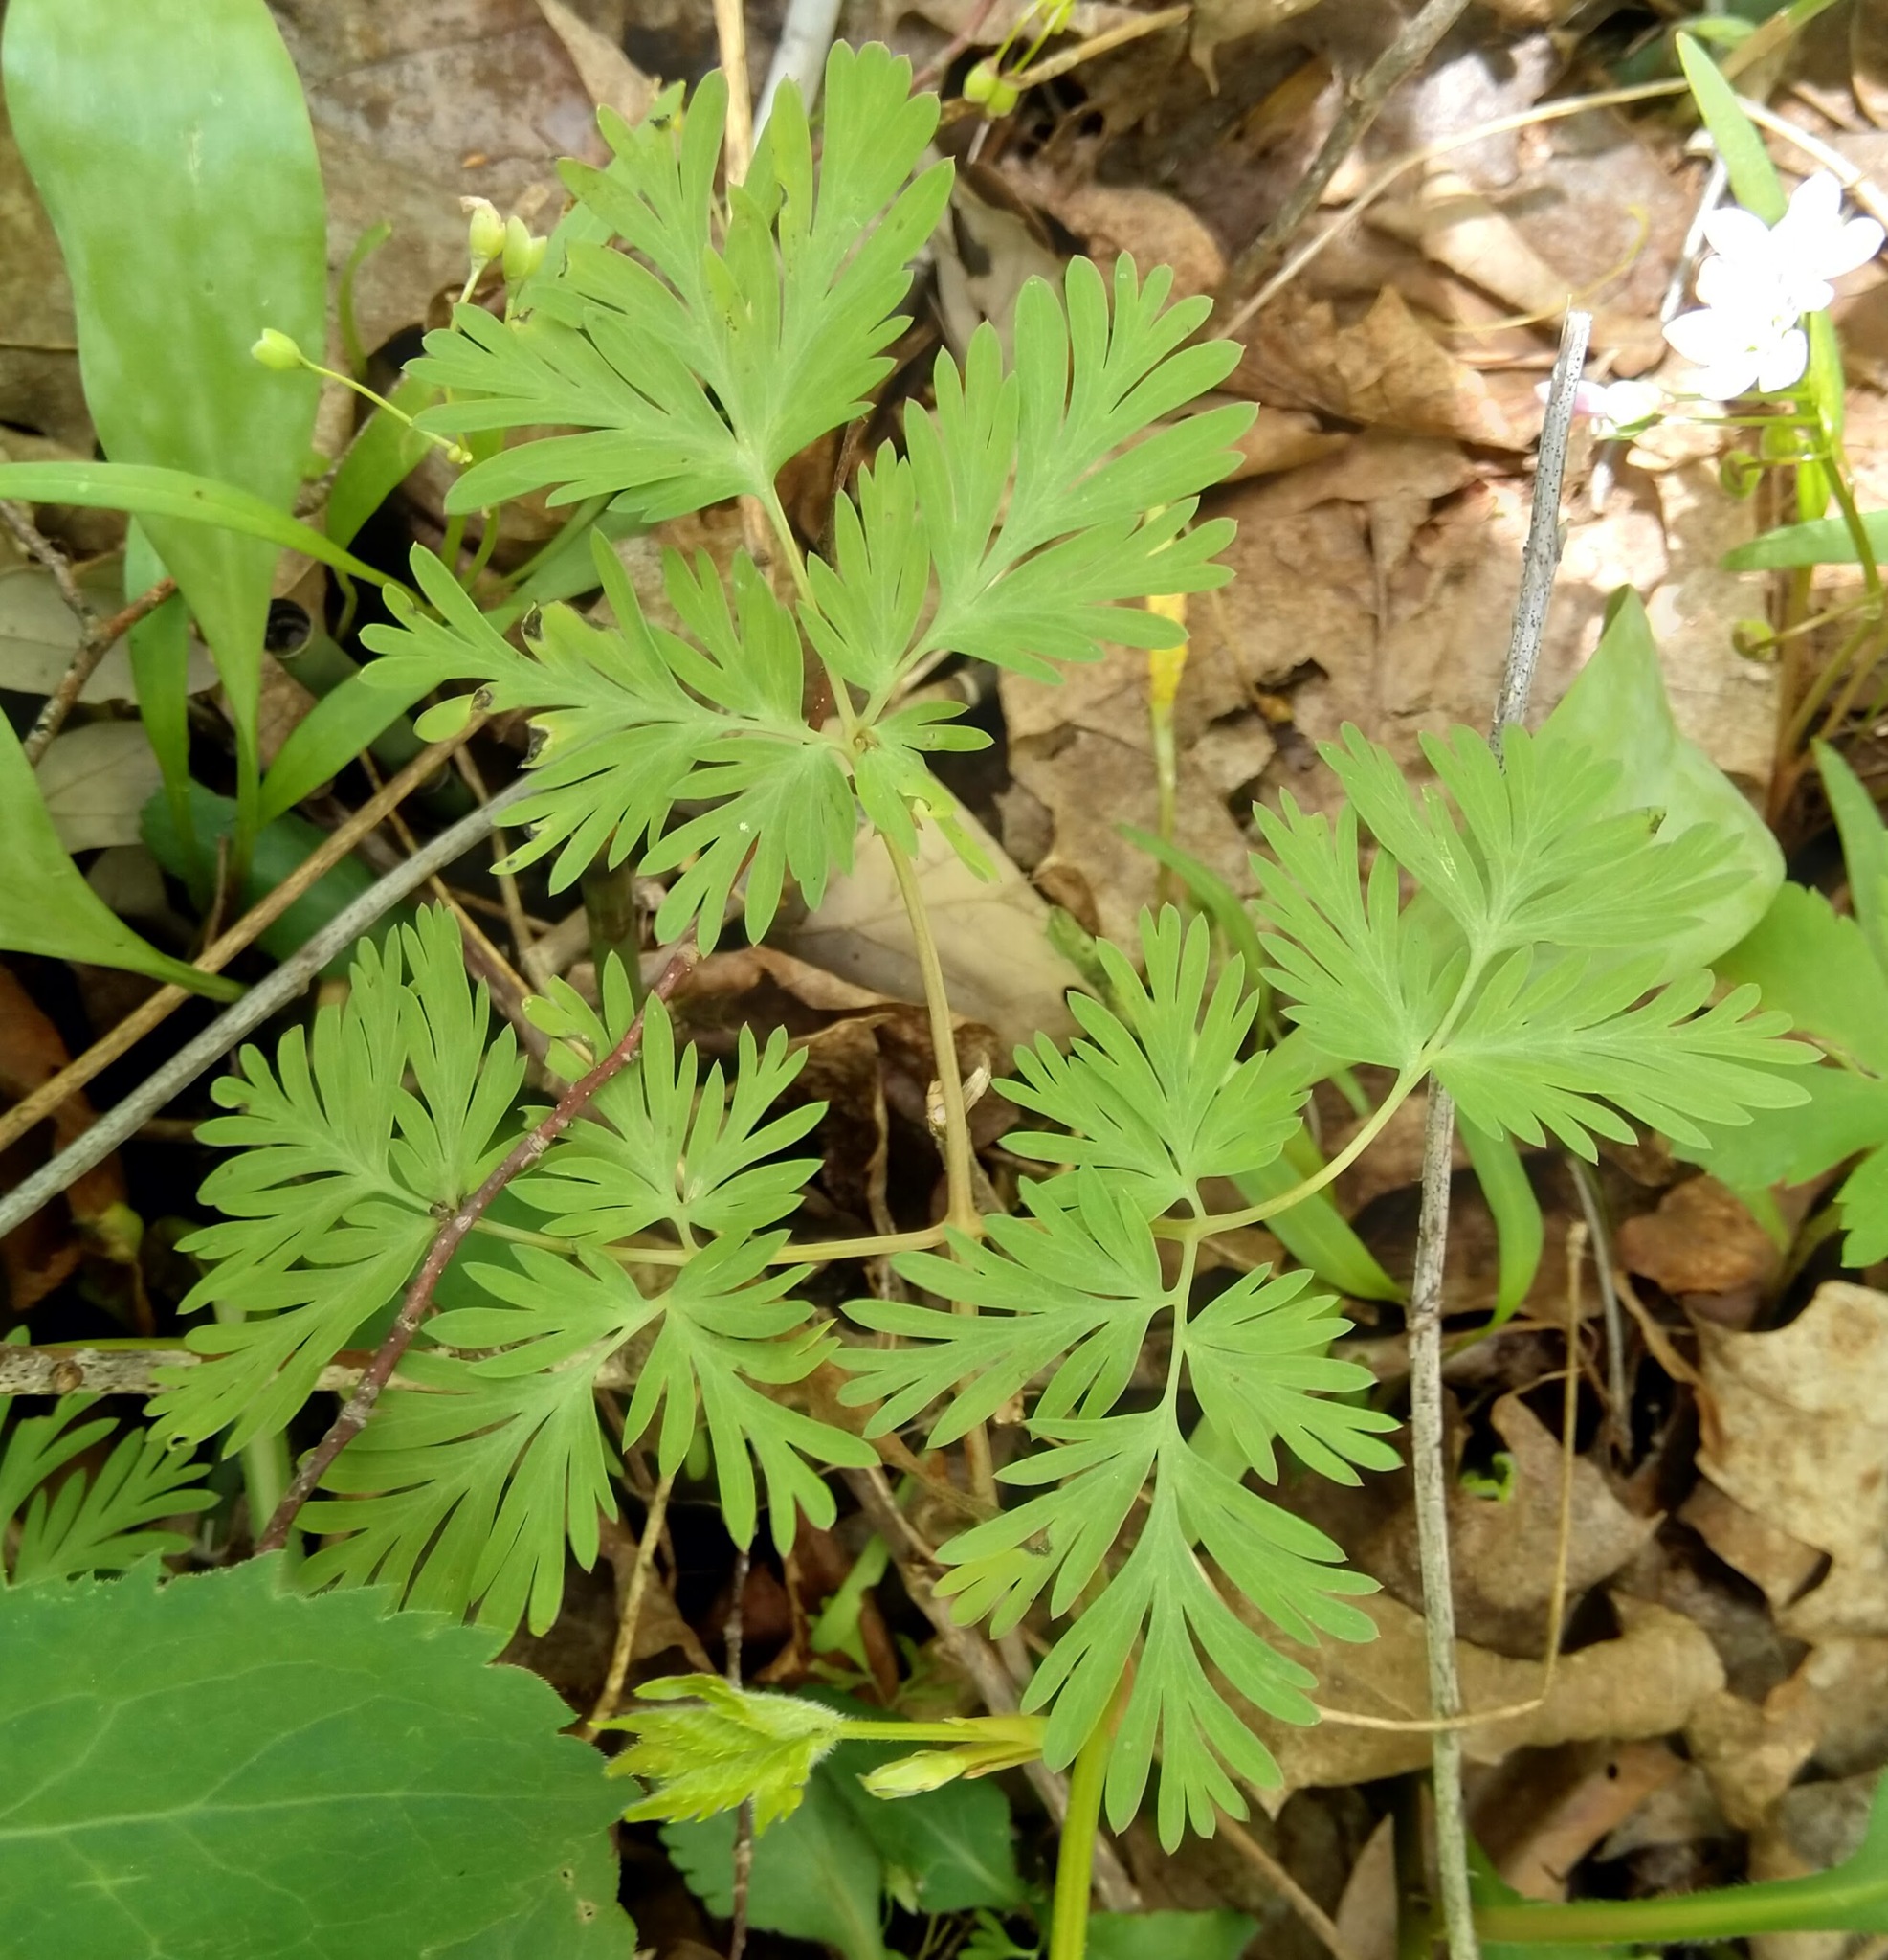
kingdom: Plantae
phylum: Tracheophyta
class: Magnoliopsida
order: Ranunculales
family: Papaveraceae
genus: Dicentra
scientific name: Dicentra cucullaria
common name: Dutchman's breeches
